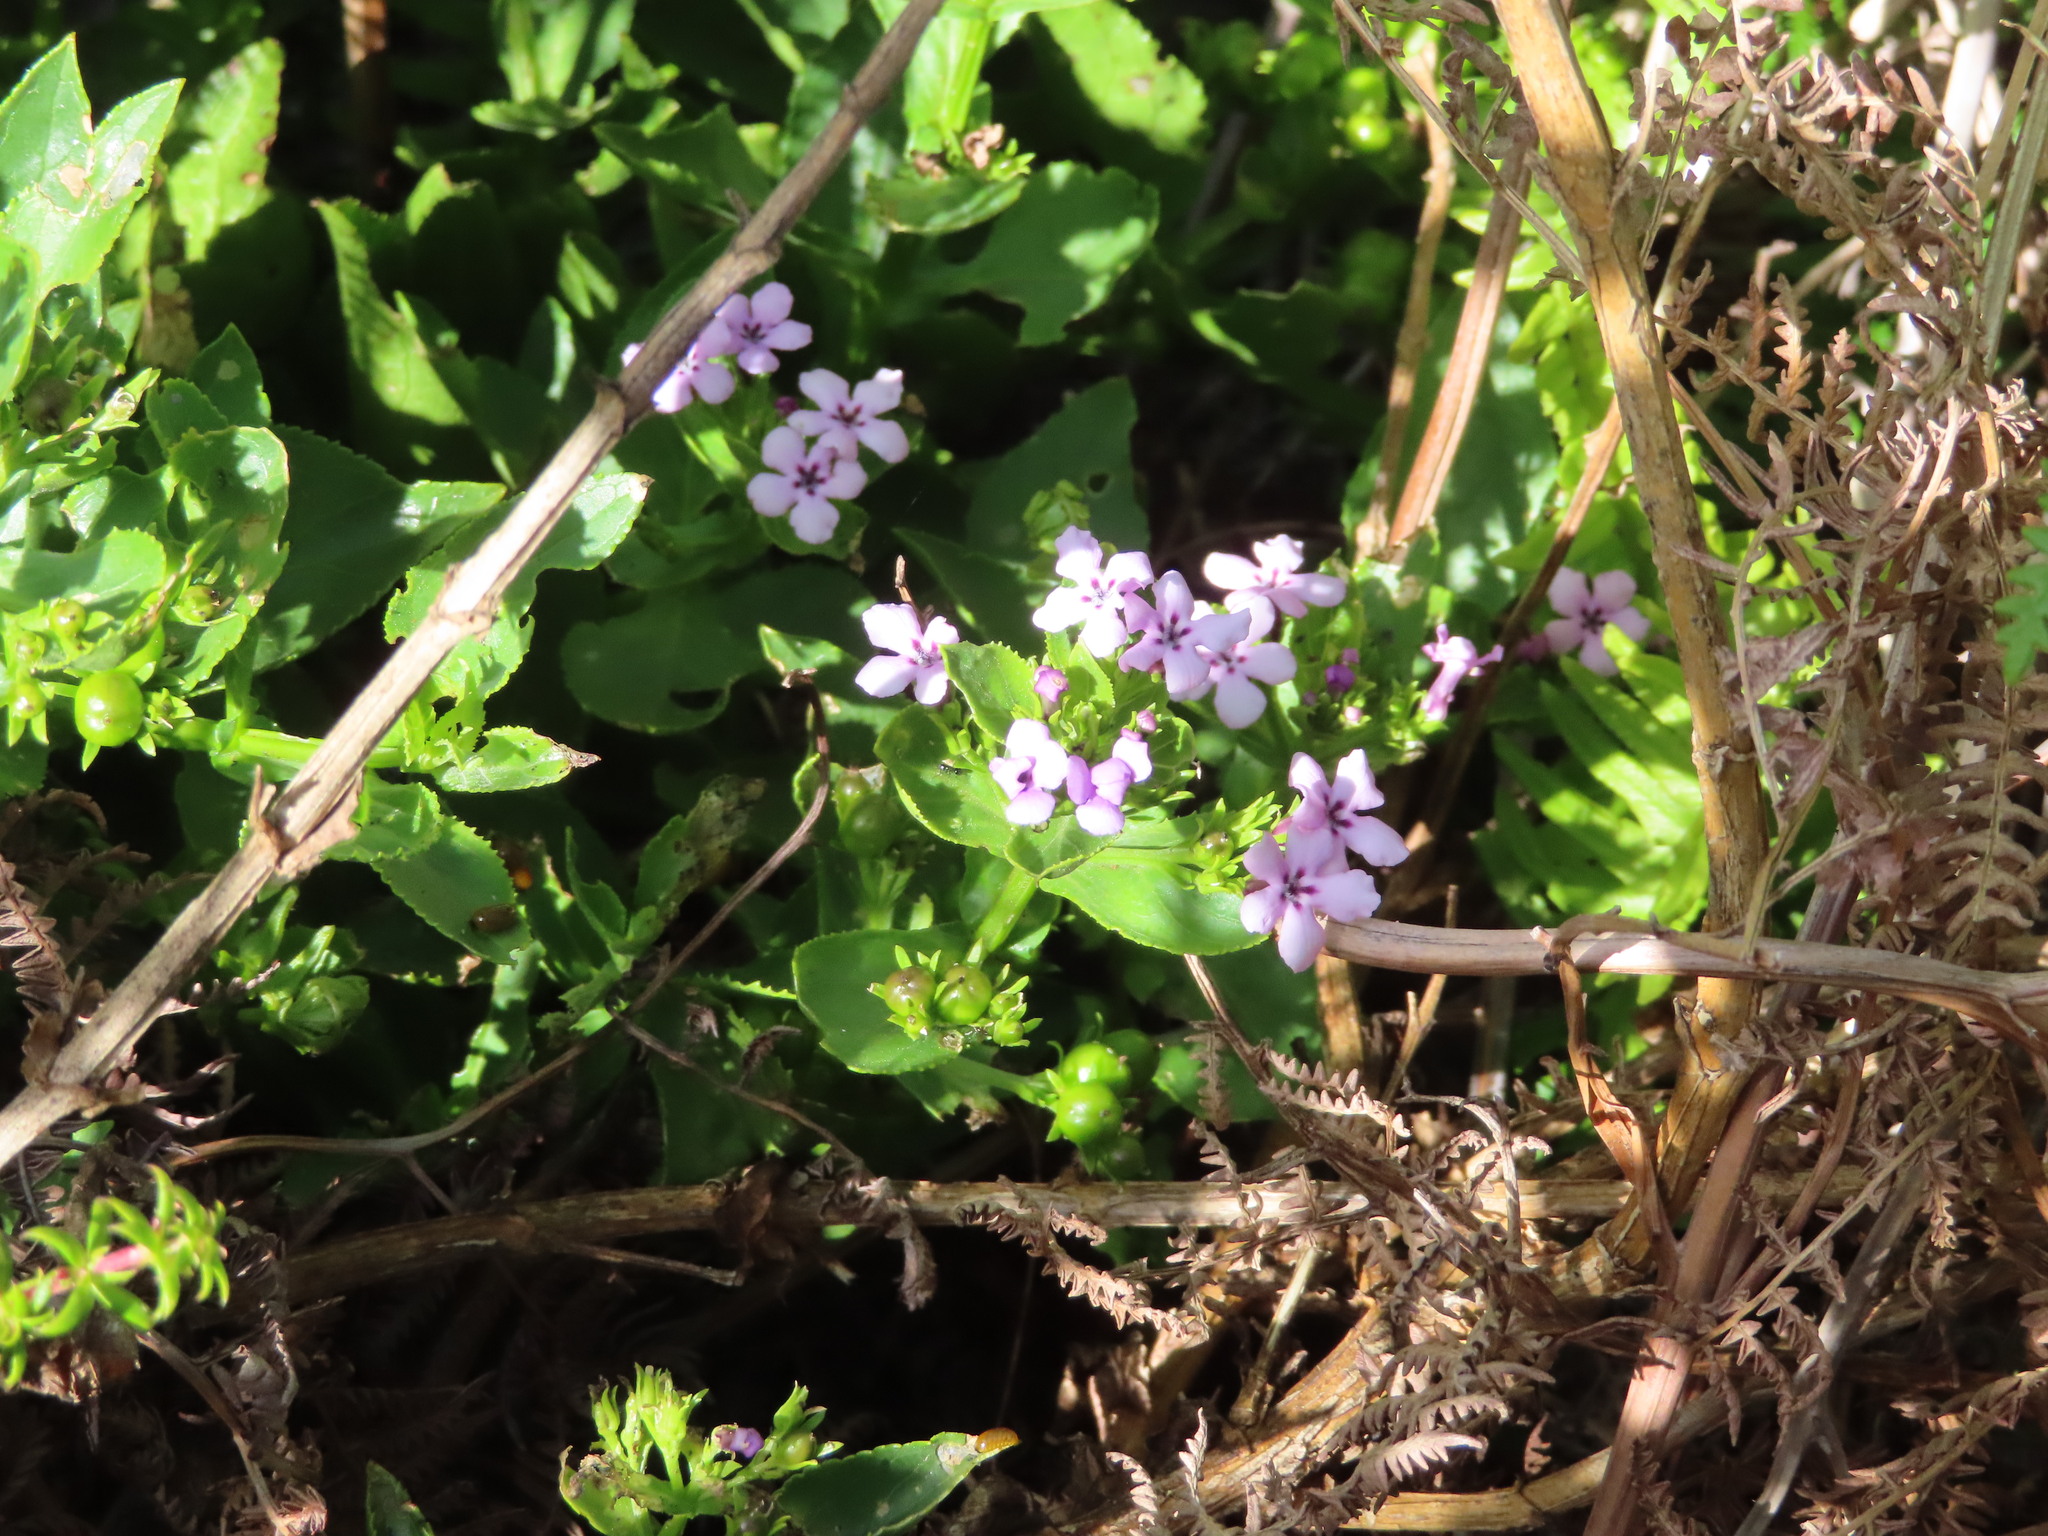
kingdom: Plantae
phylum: Tracheophyta
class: Magnoliopsida
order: Lamiales
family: Scrophulariaceae
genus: Teedia
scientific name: Teedia lucida
